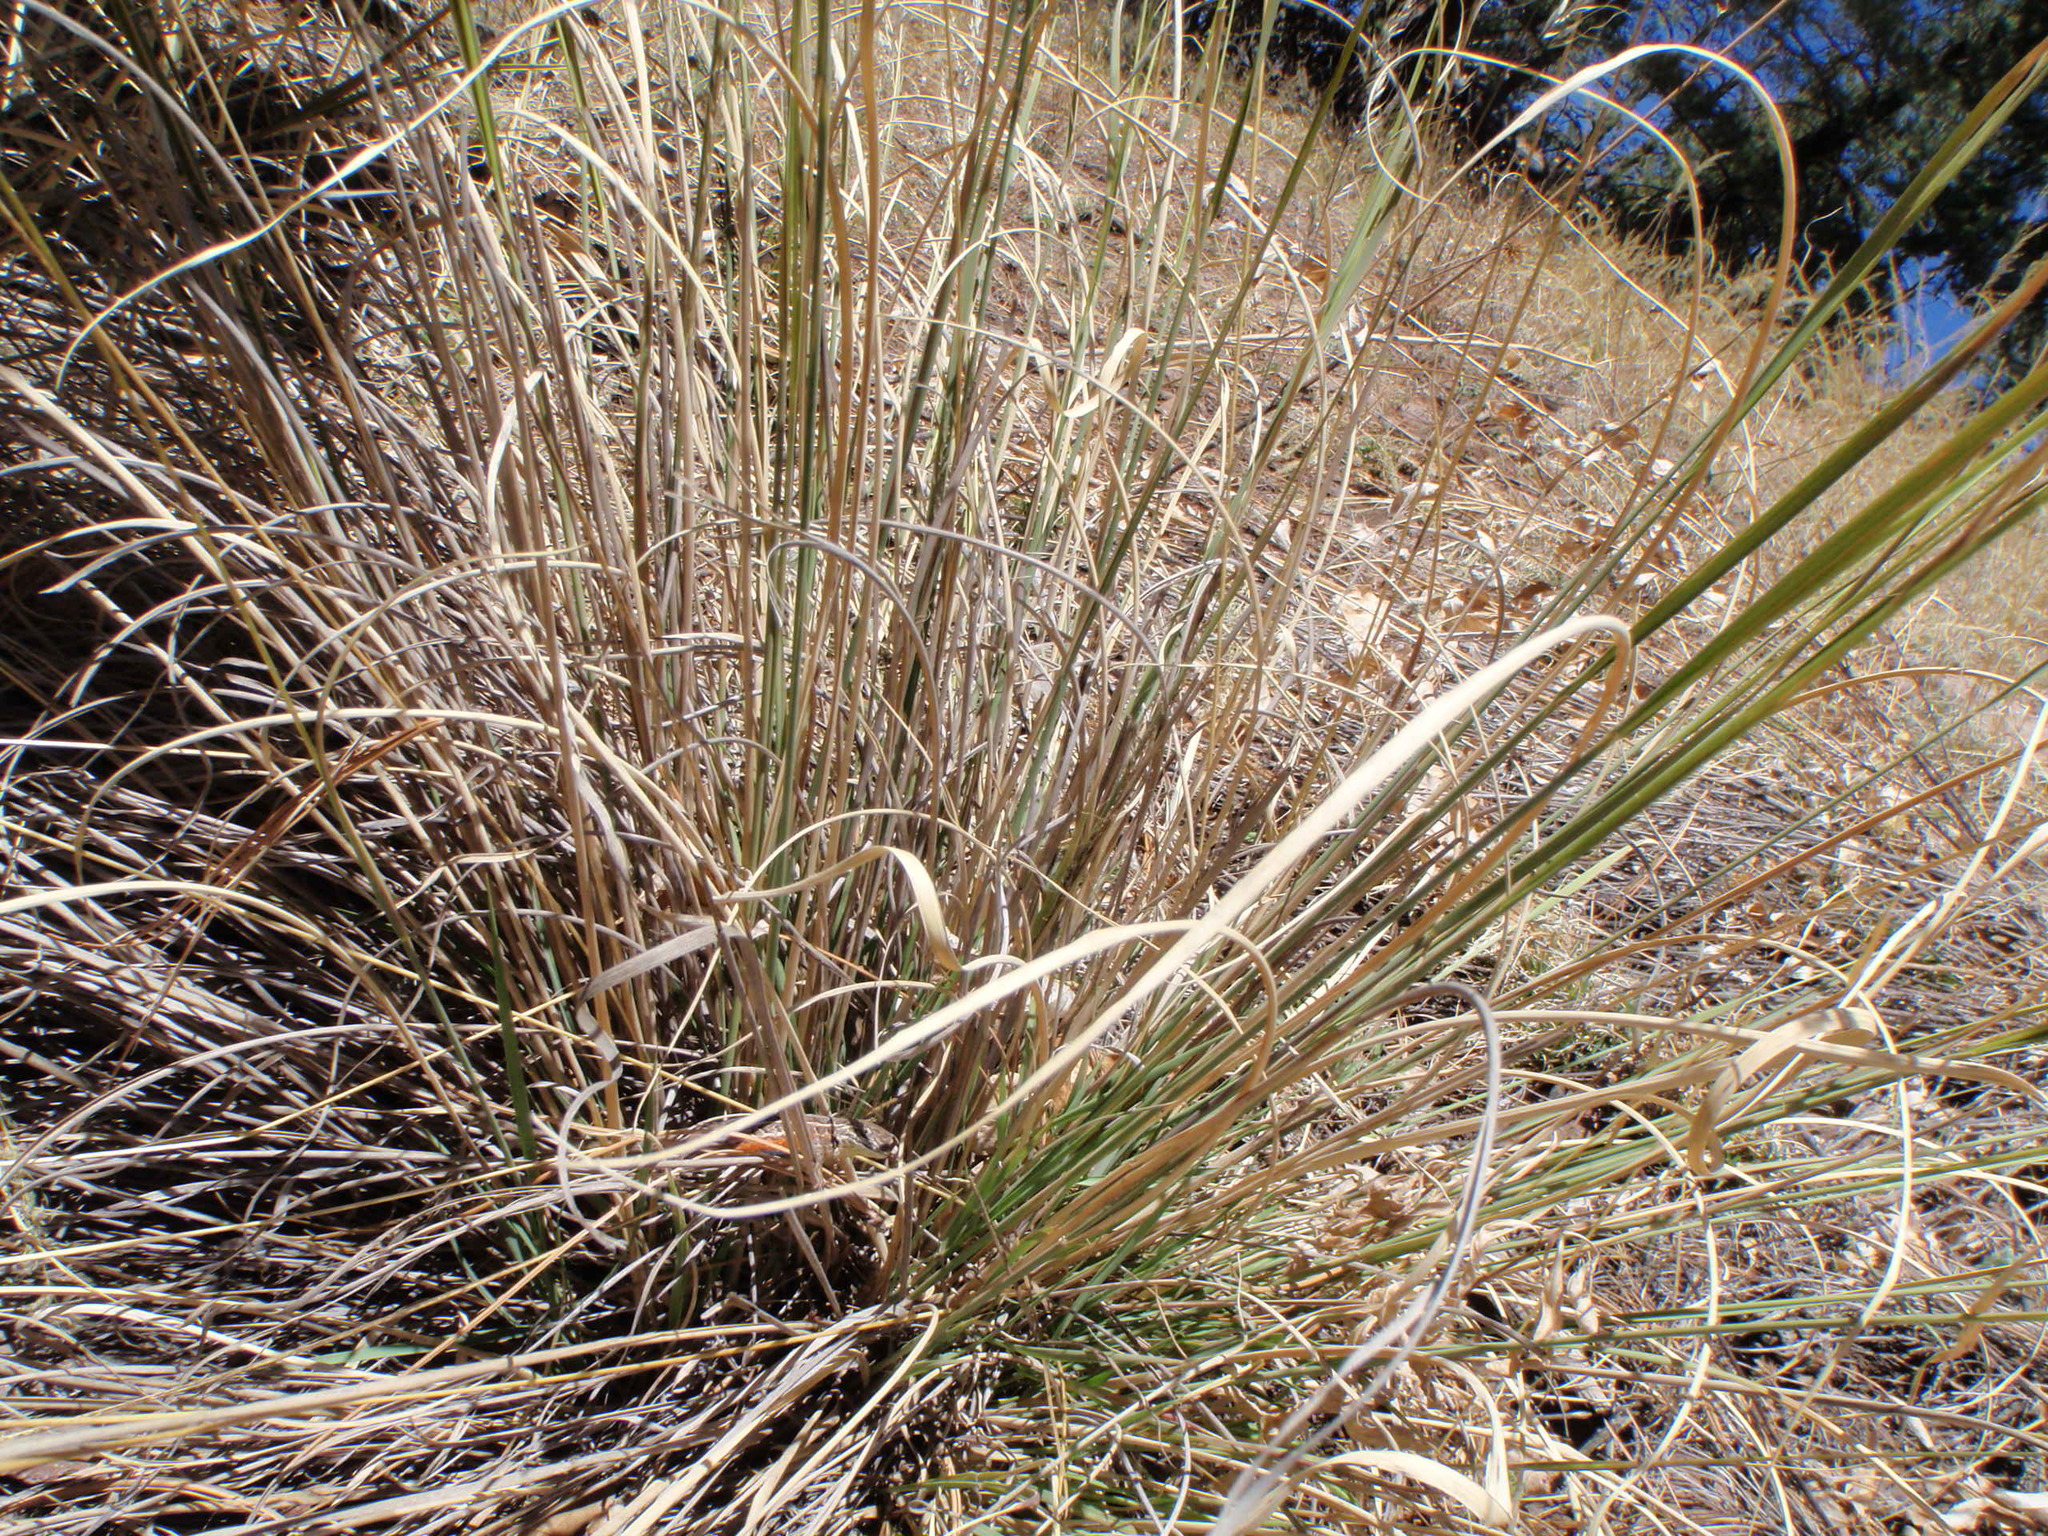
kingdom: Animalia
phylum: Chordata
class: Squamata
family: Phrynosomatidae
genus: Sceloporus
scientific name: Sceloporus slevini
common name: Slevins’s bunch grass lizard
